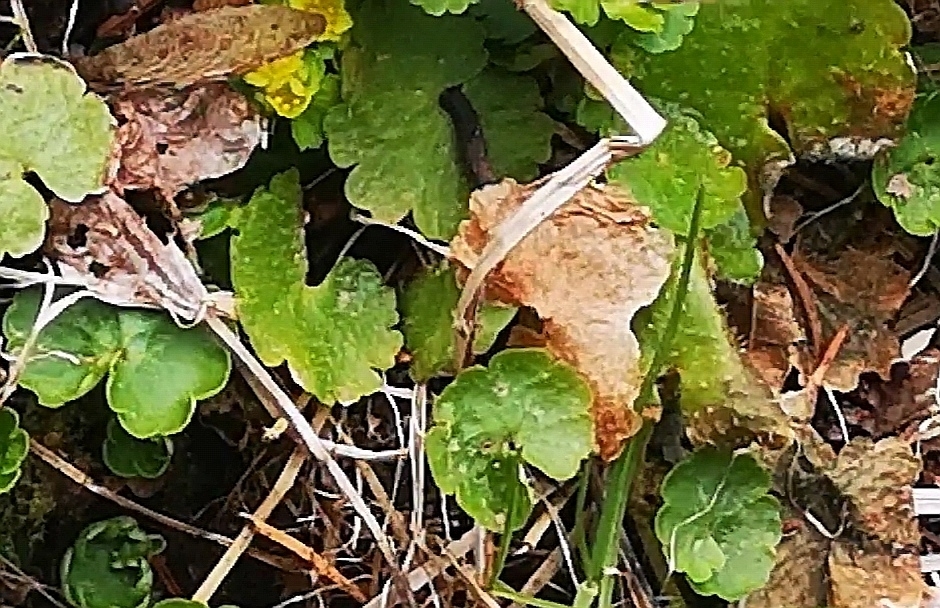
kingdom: Plantae
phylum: Tracheophyta
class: Magnoliopsida
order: Saxifragales
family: Saxifragaceae
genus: Chrysosplenium
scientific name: Chrysosplenium alternifolium
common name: Alternate-leaved golden-saxifrage
